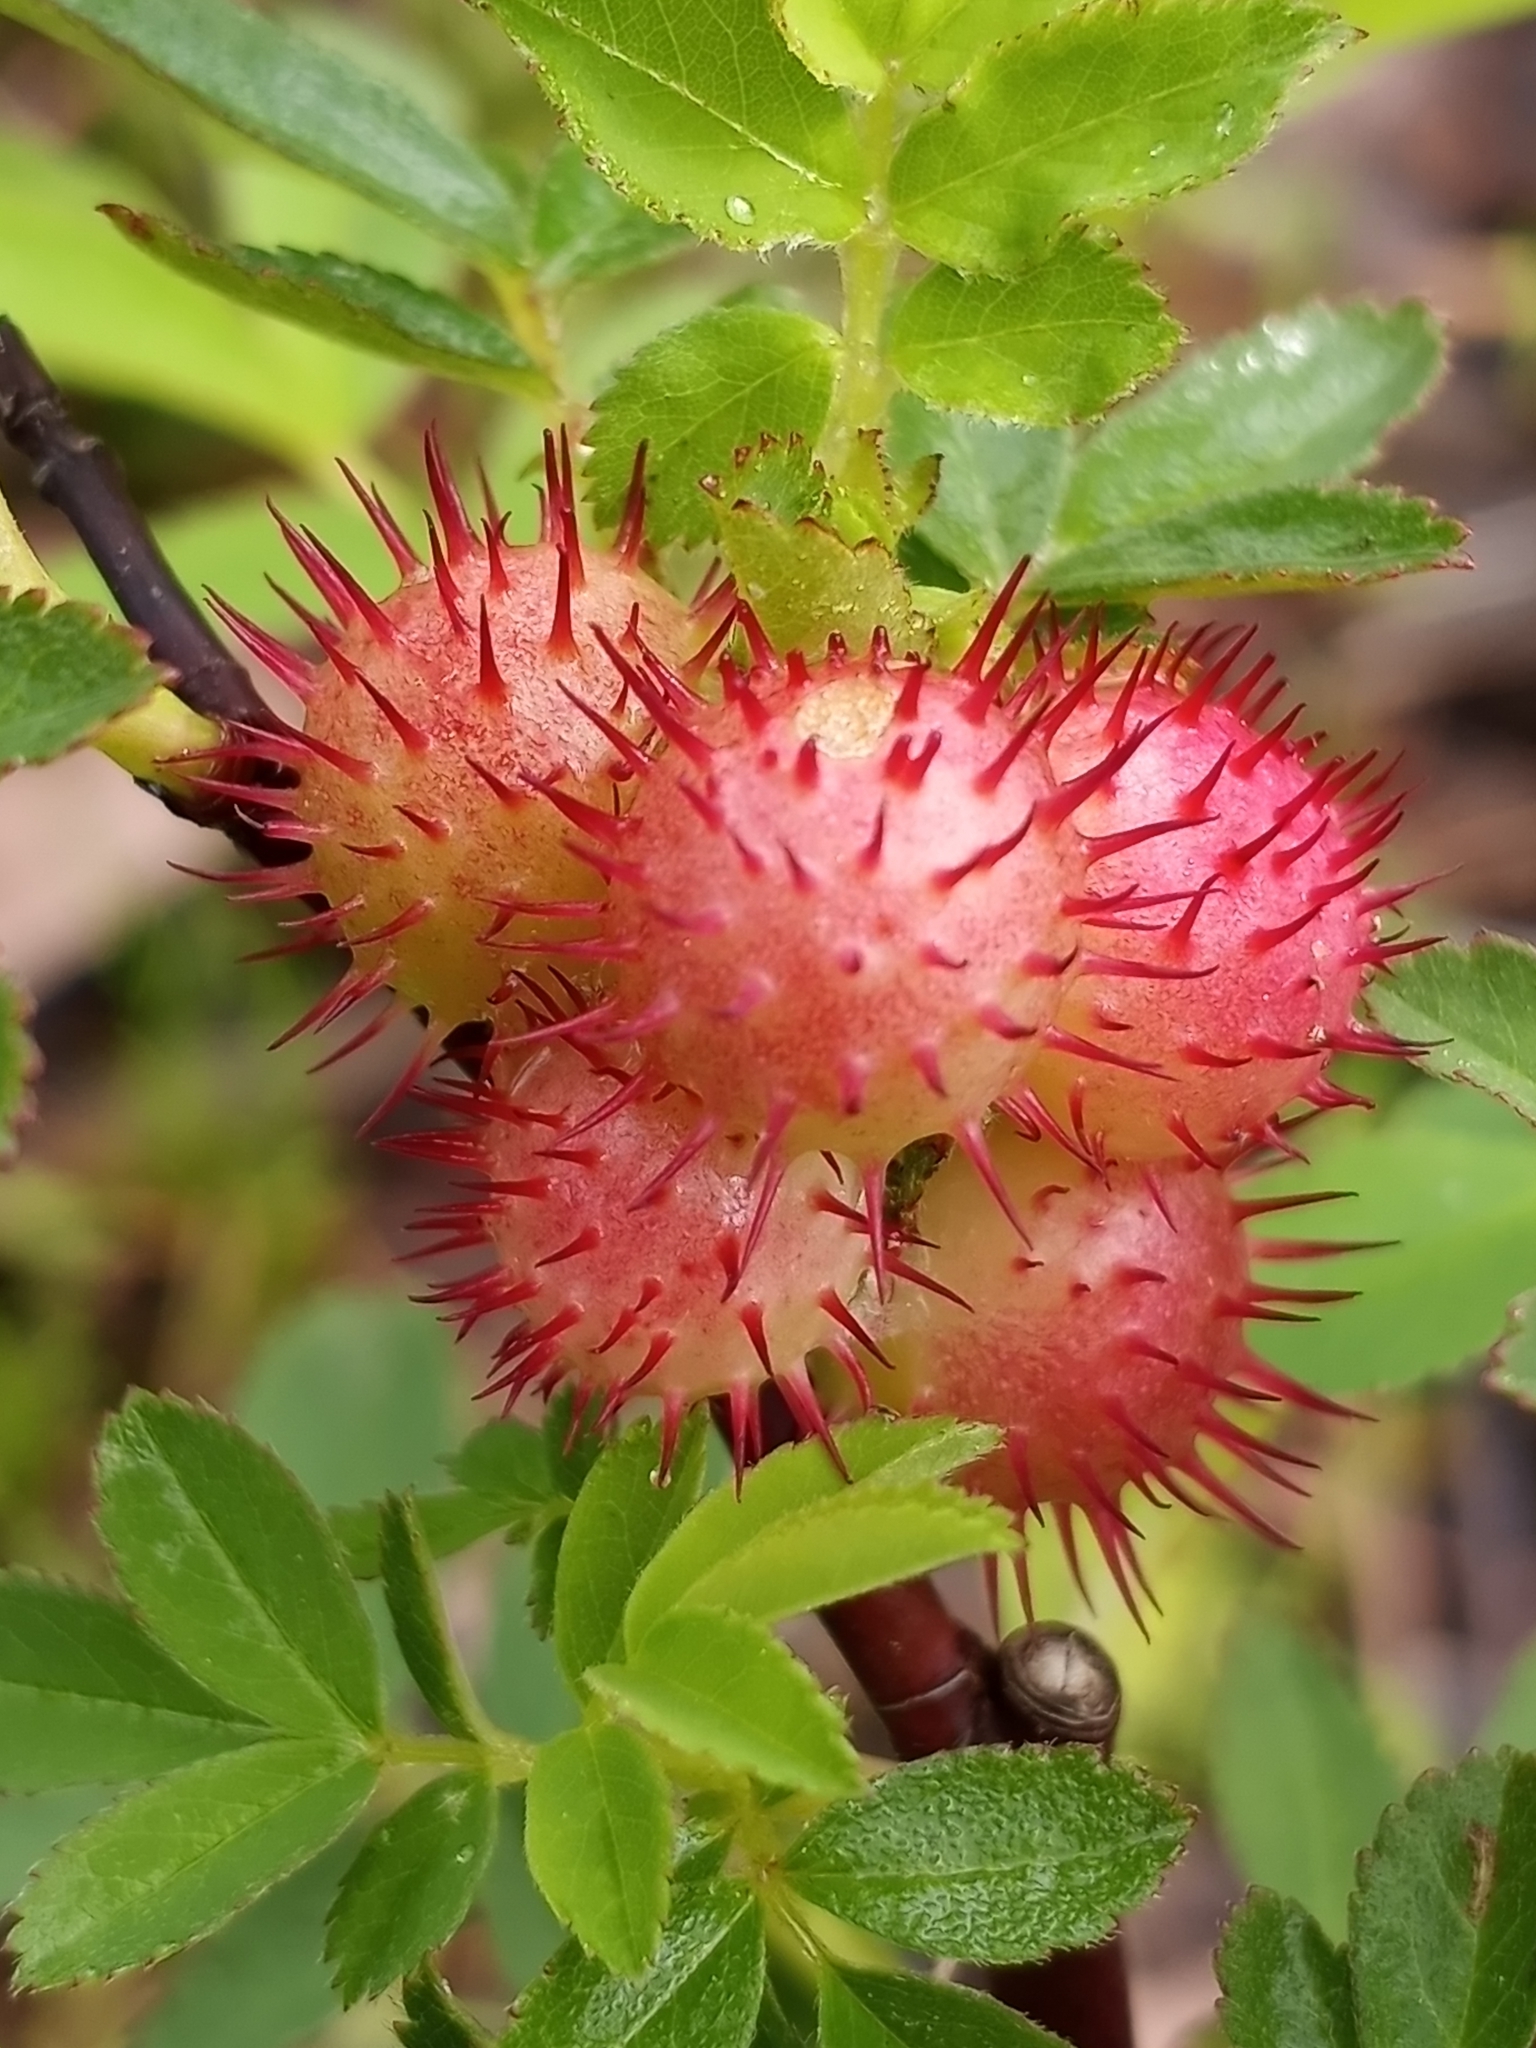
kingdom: Animalia
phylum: Arthropoda
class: Insecta
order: Hymenoptera
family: Cynipidae
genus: Diplolepis
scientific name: Diplolepis polita
